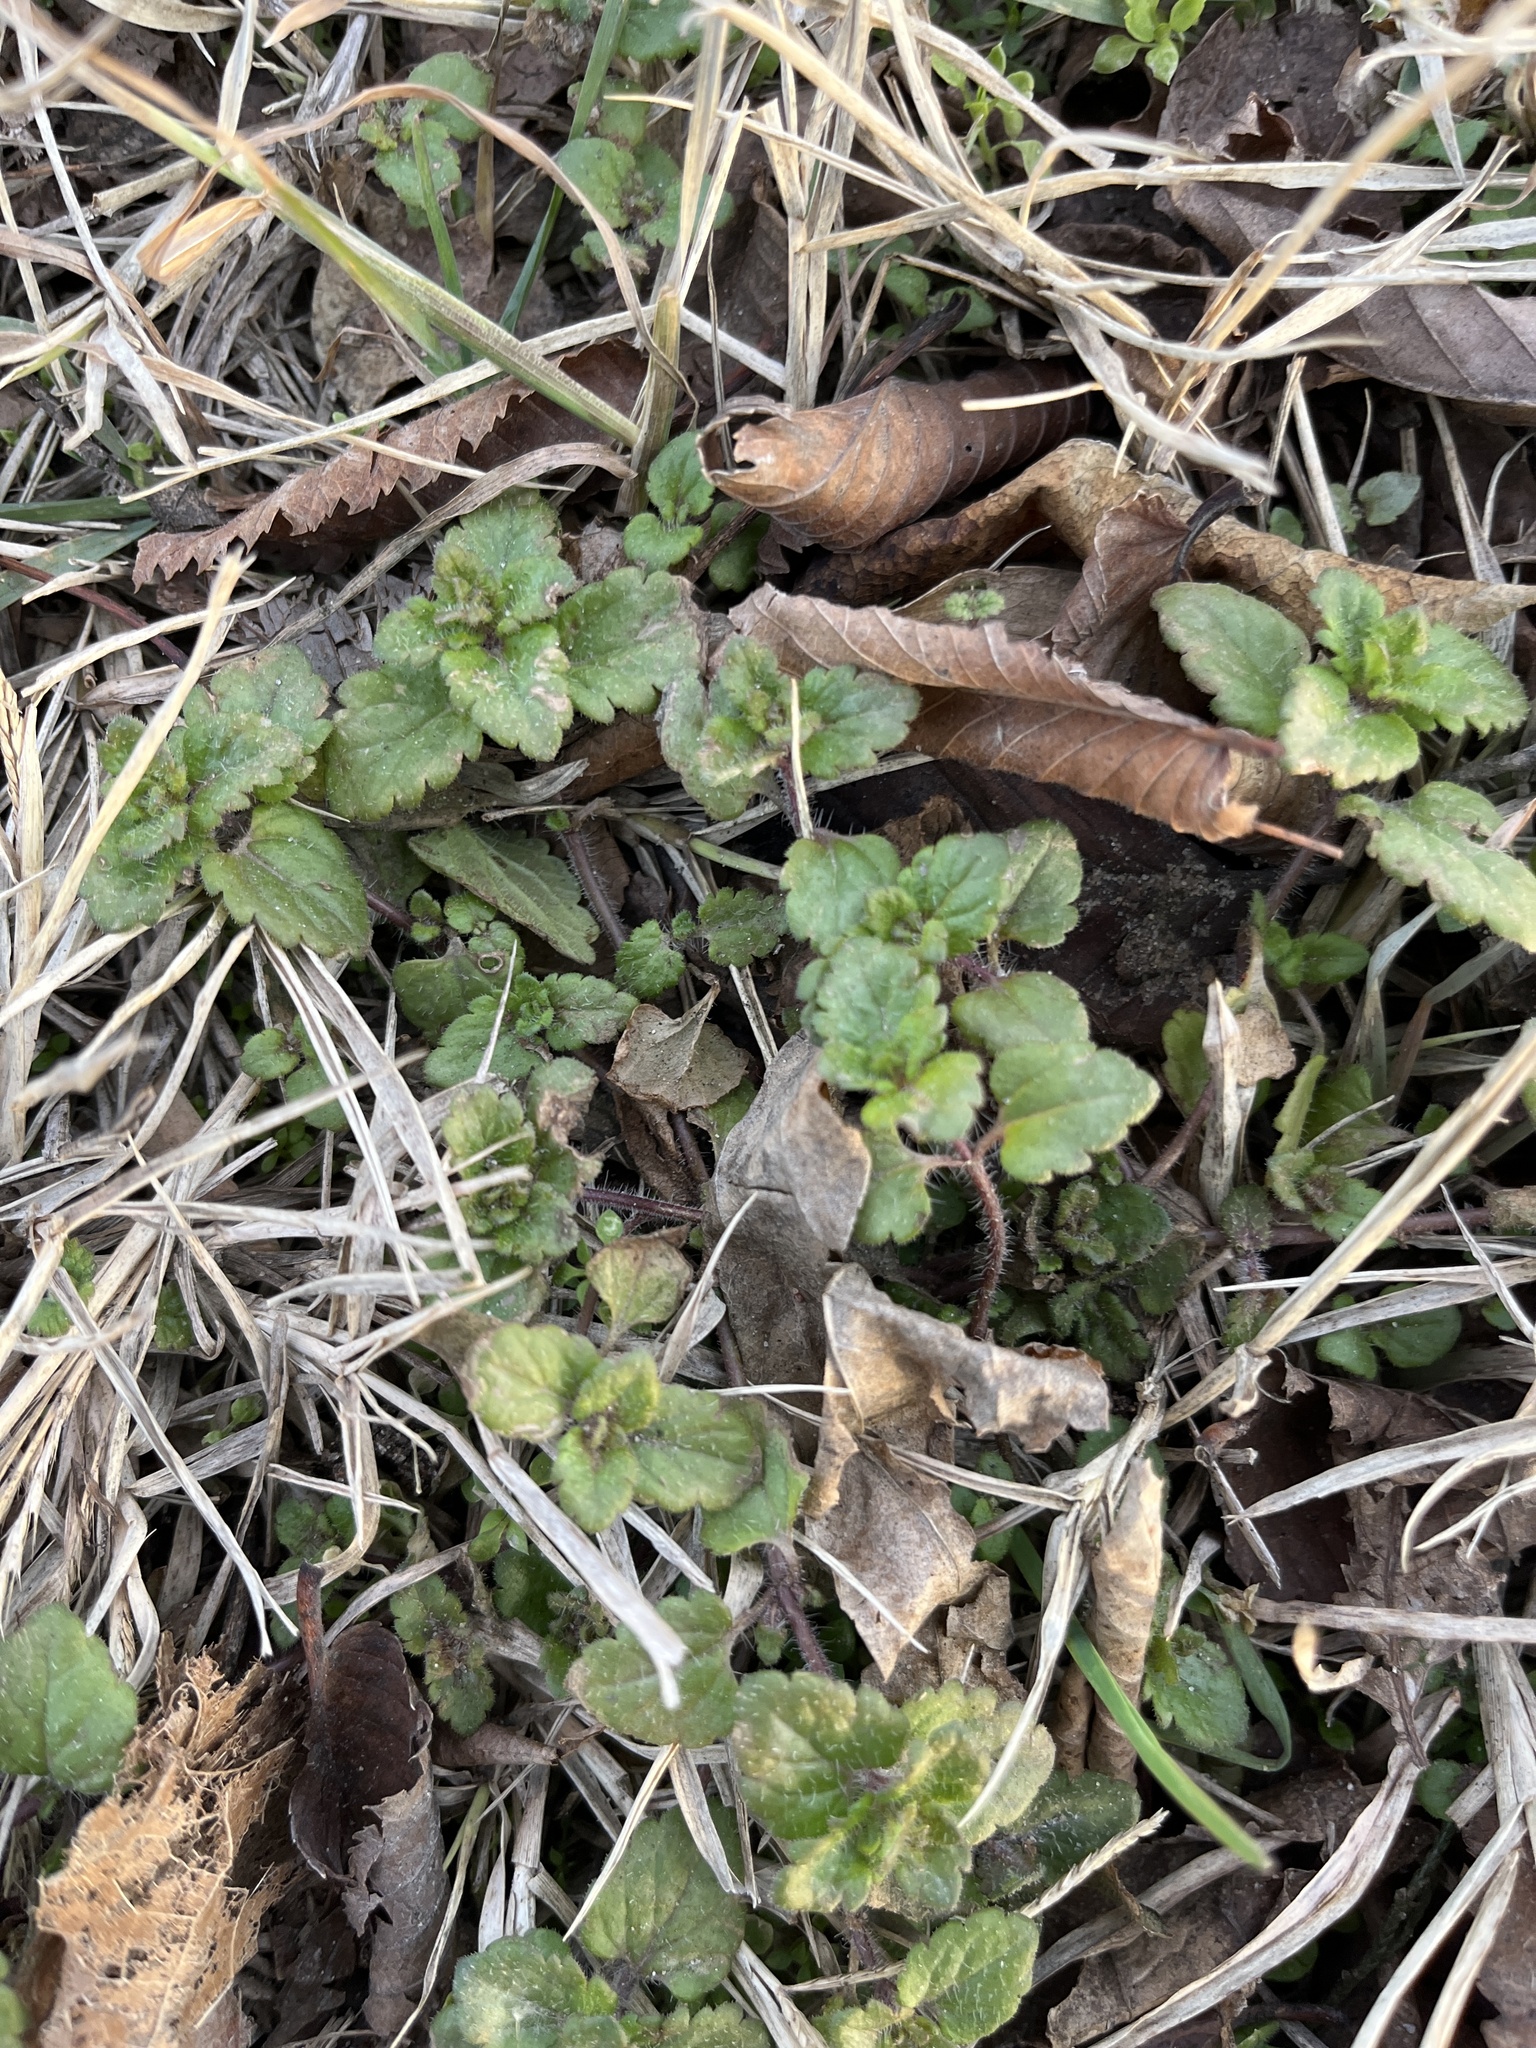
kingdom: Plantae
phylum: Tracheophyta
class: Magnoliopsida
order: Lamiales
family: Plantaginaceae
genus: Veronica
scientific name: Veronica persica
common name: Common field-speedwell
